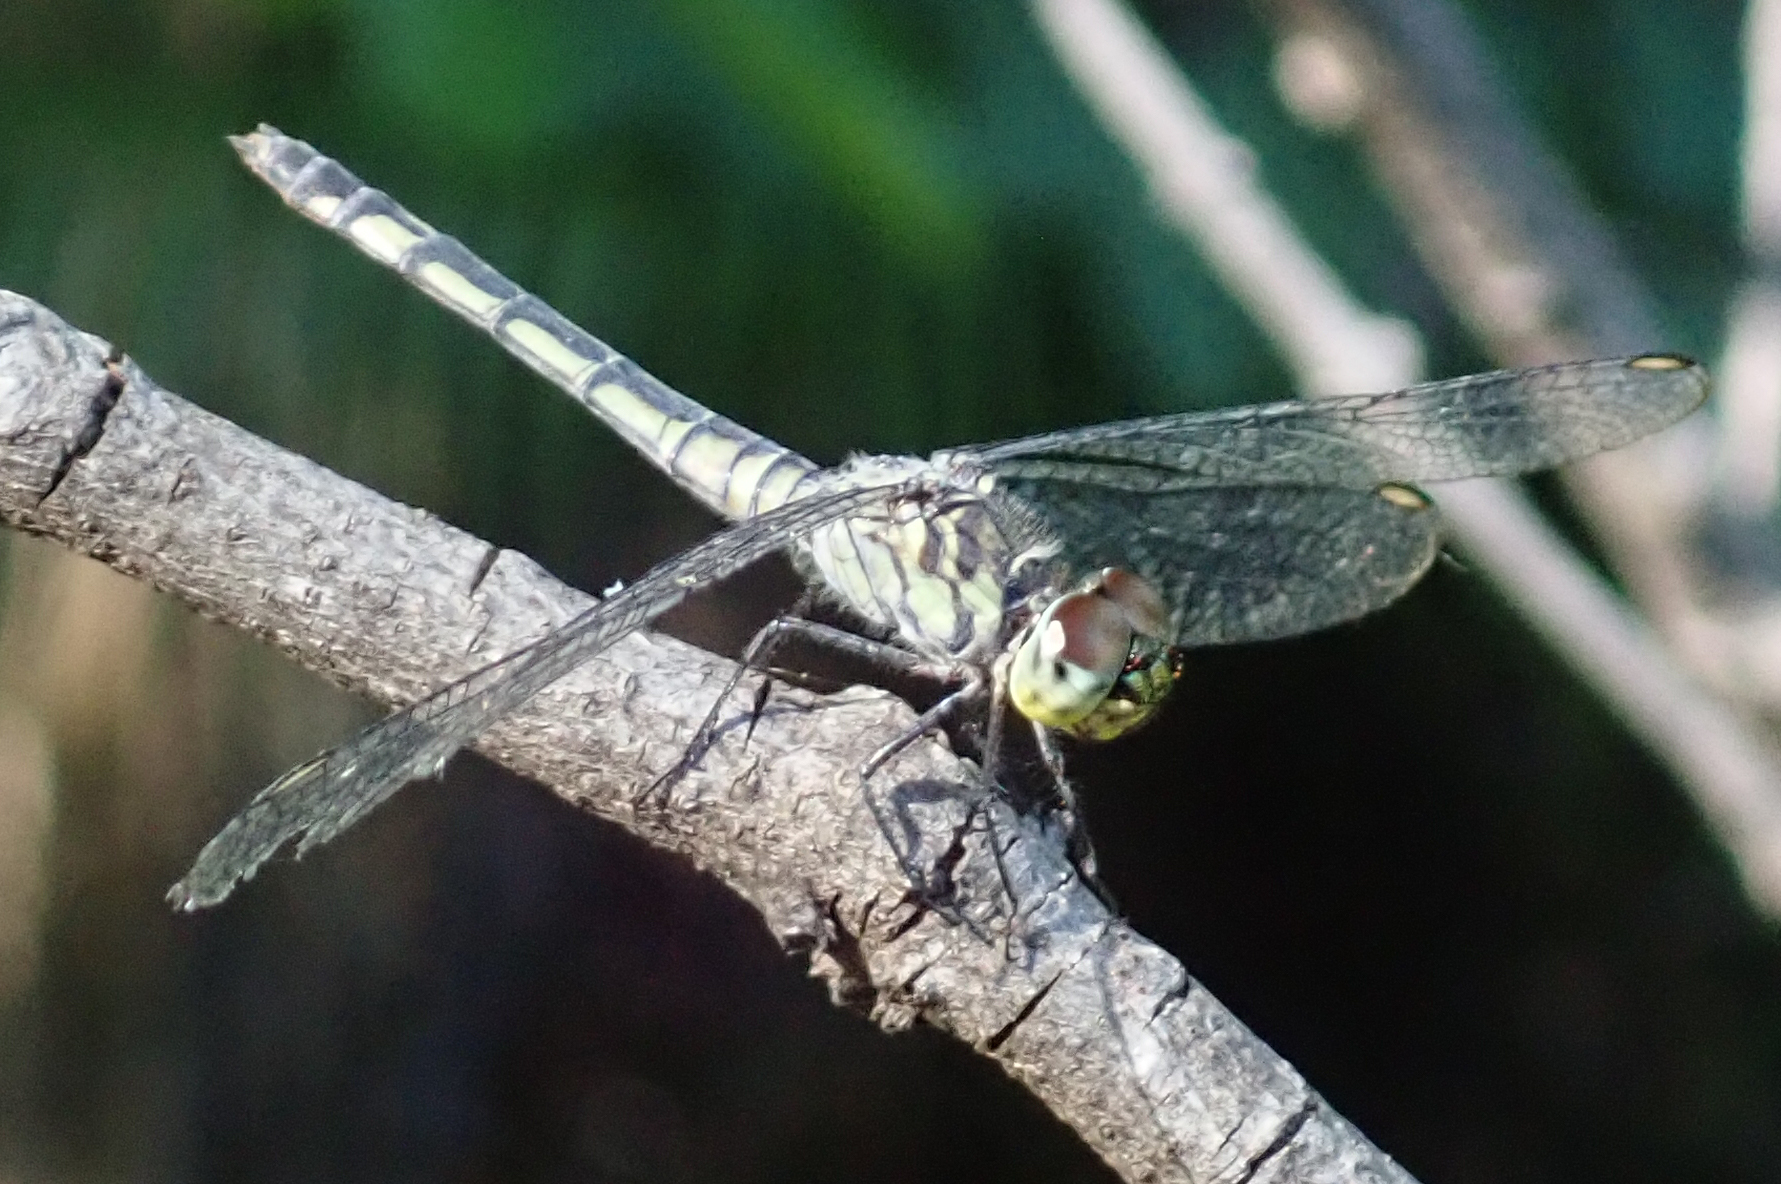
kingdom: Animalia
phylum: Arthropoda
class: Insecta
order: Odonata
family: Libellulidae
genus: Chalcostephia
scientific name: Chalcostephia flavifrons
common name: Inspector
